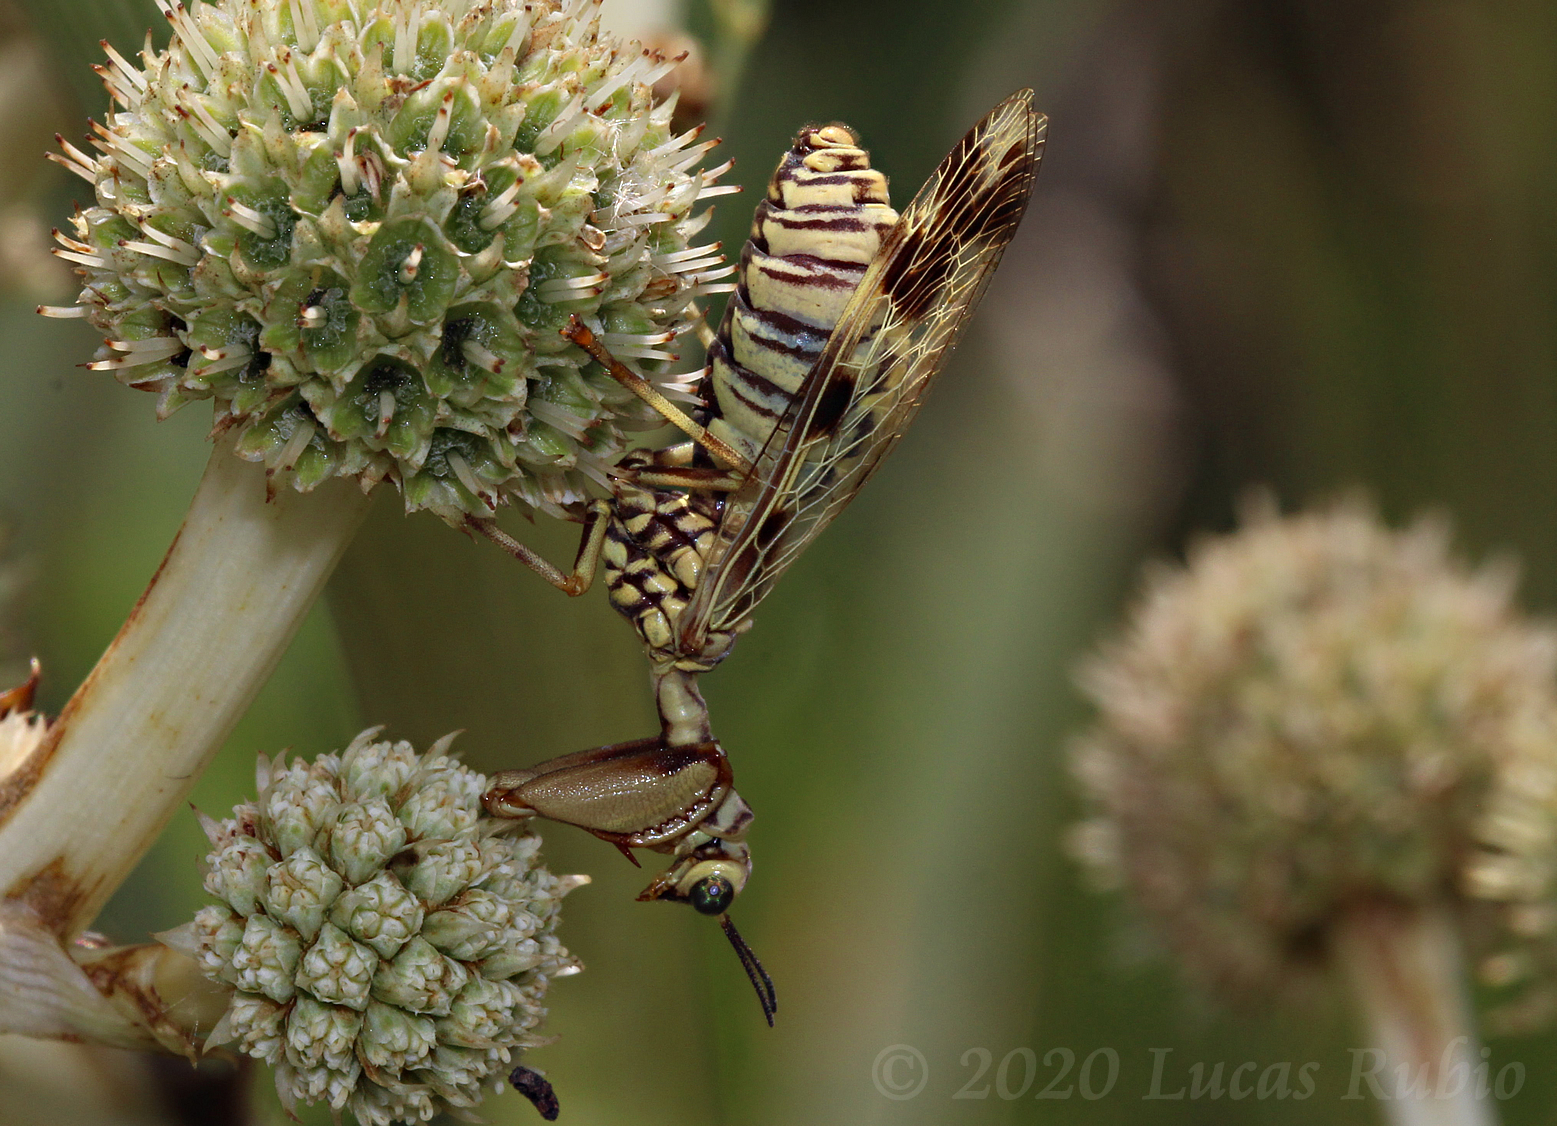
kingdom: Animalia
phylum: Arthropoda
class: Insecta
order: Neuroptera
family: Mantispidae
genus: Paramantispa
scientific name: Paramantispa ambusta
